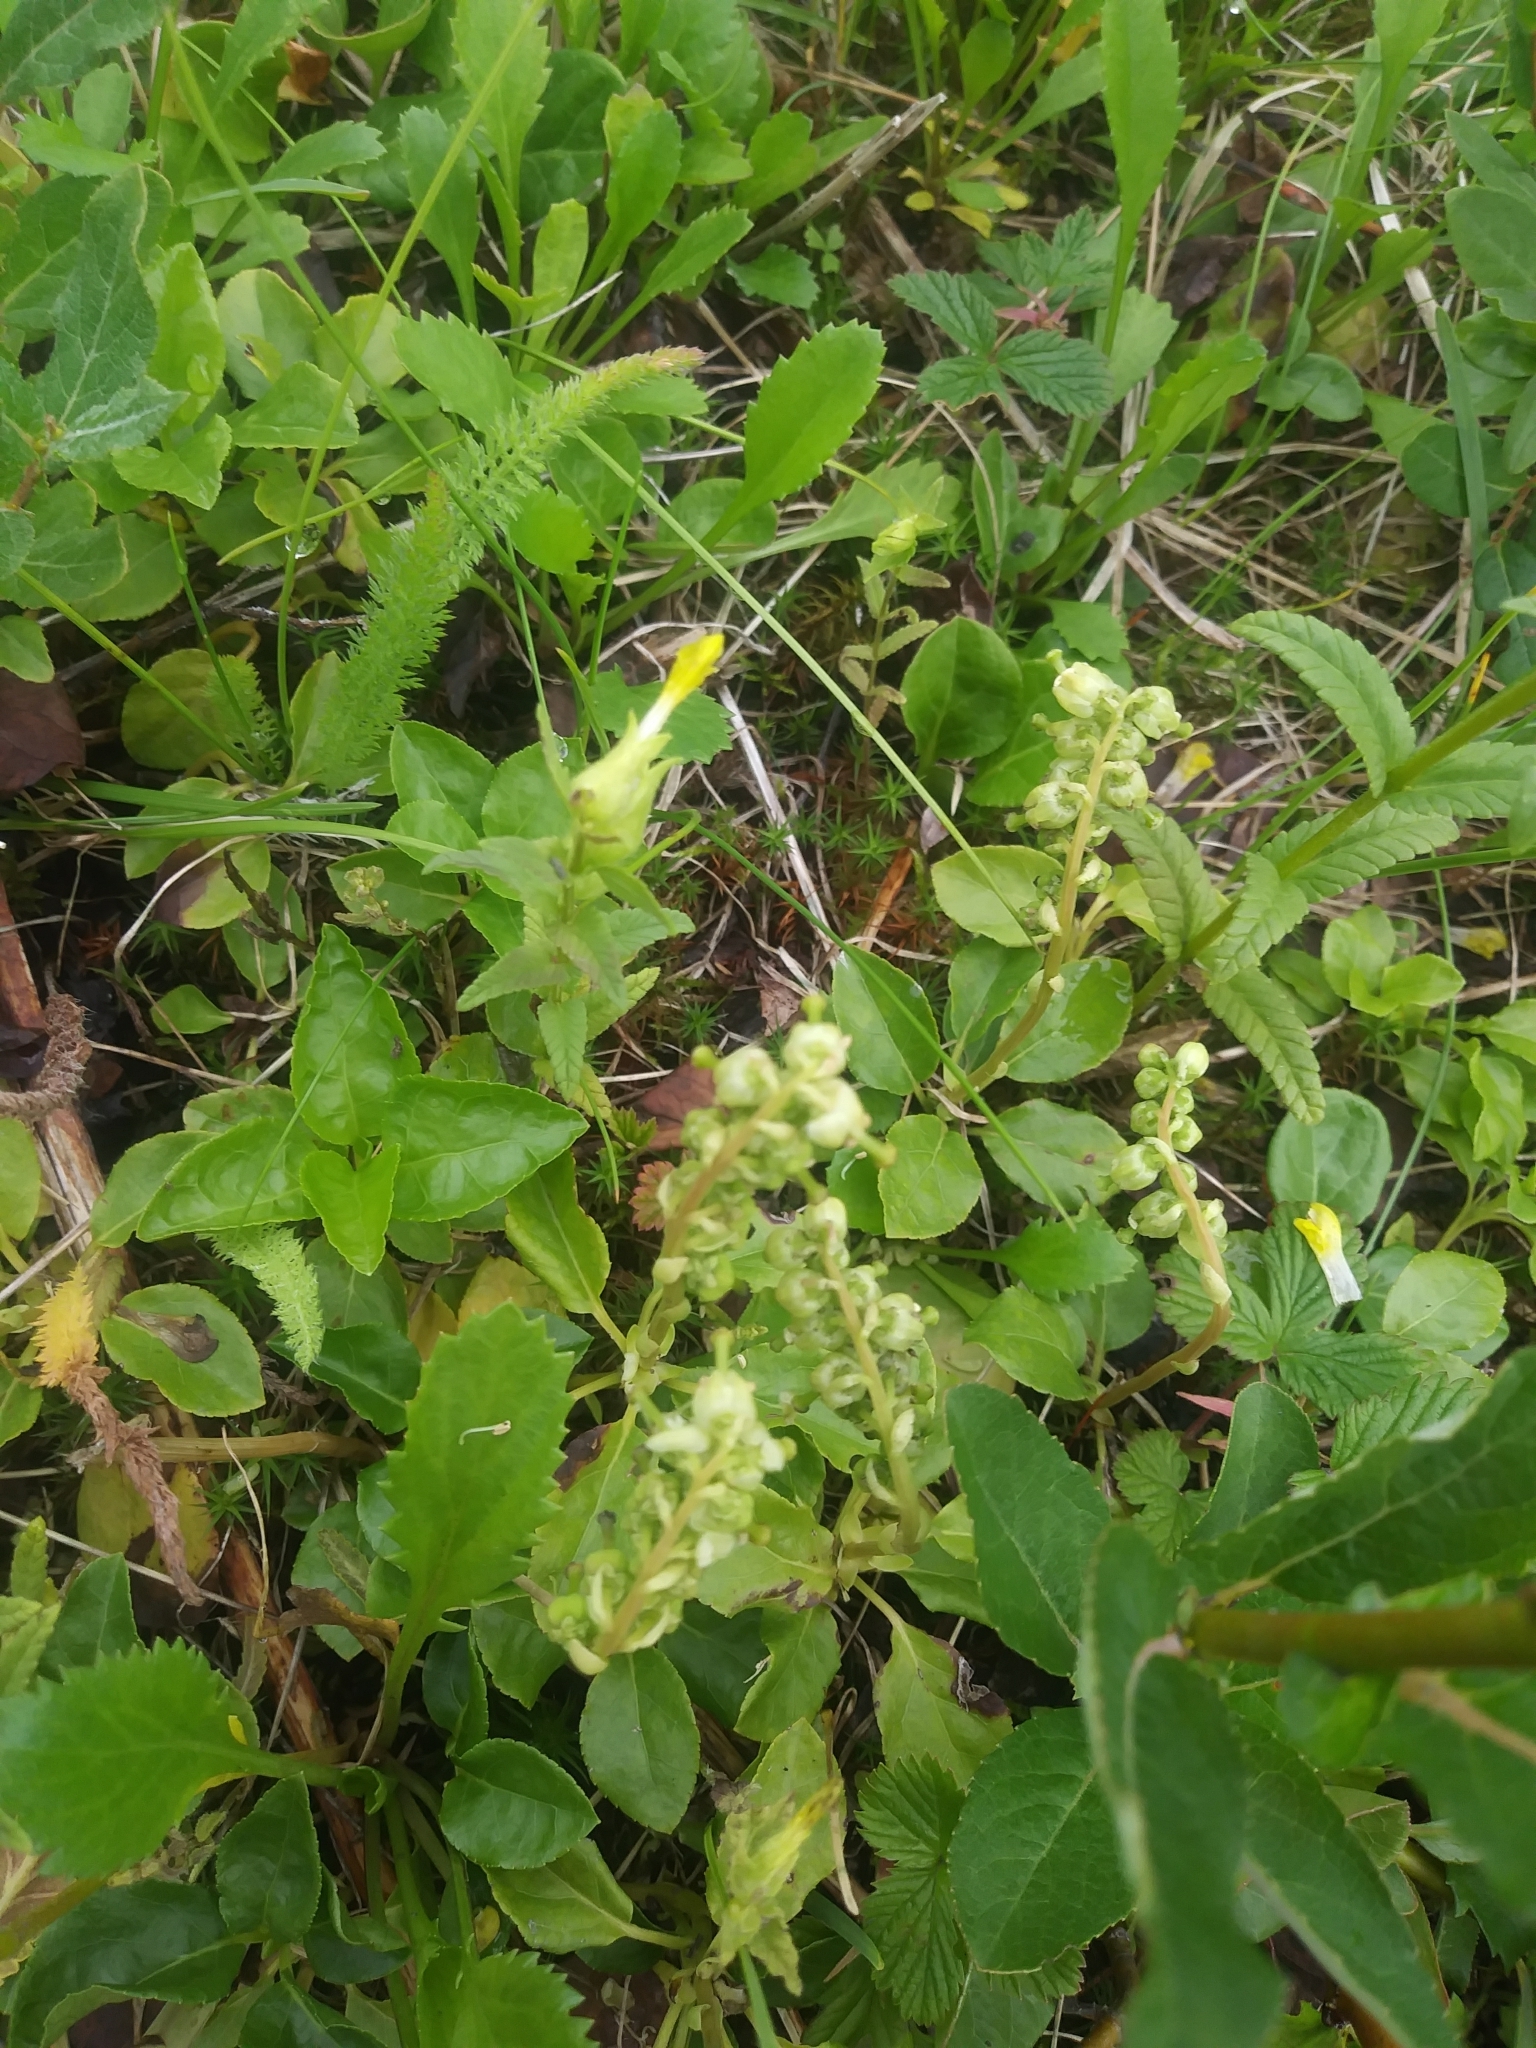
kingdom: Plantae
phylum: Tracheophyta
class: Magnoliopsida
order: Ericales
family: Ericaceae
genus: Orthilia
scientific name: Orthilia secunda
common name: One-sided orthilia
